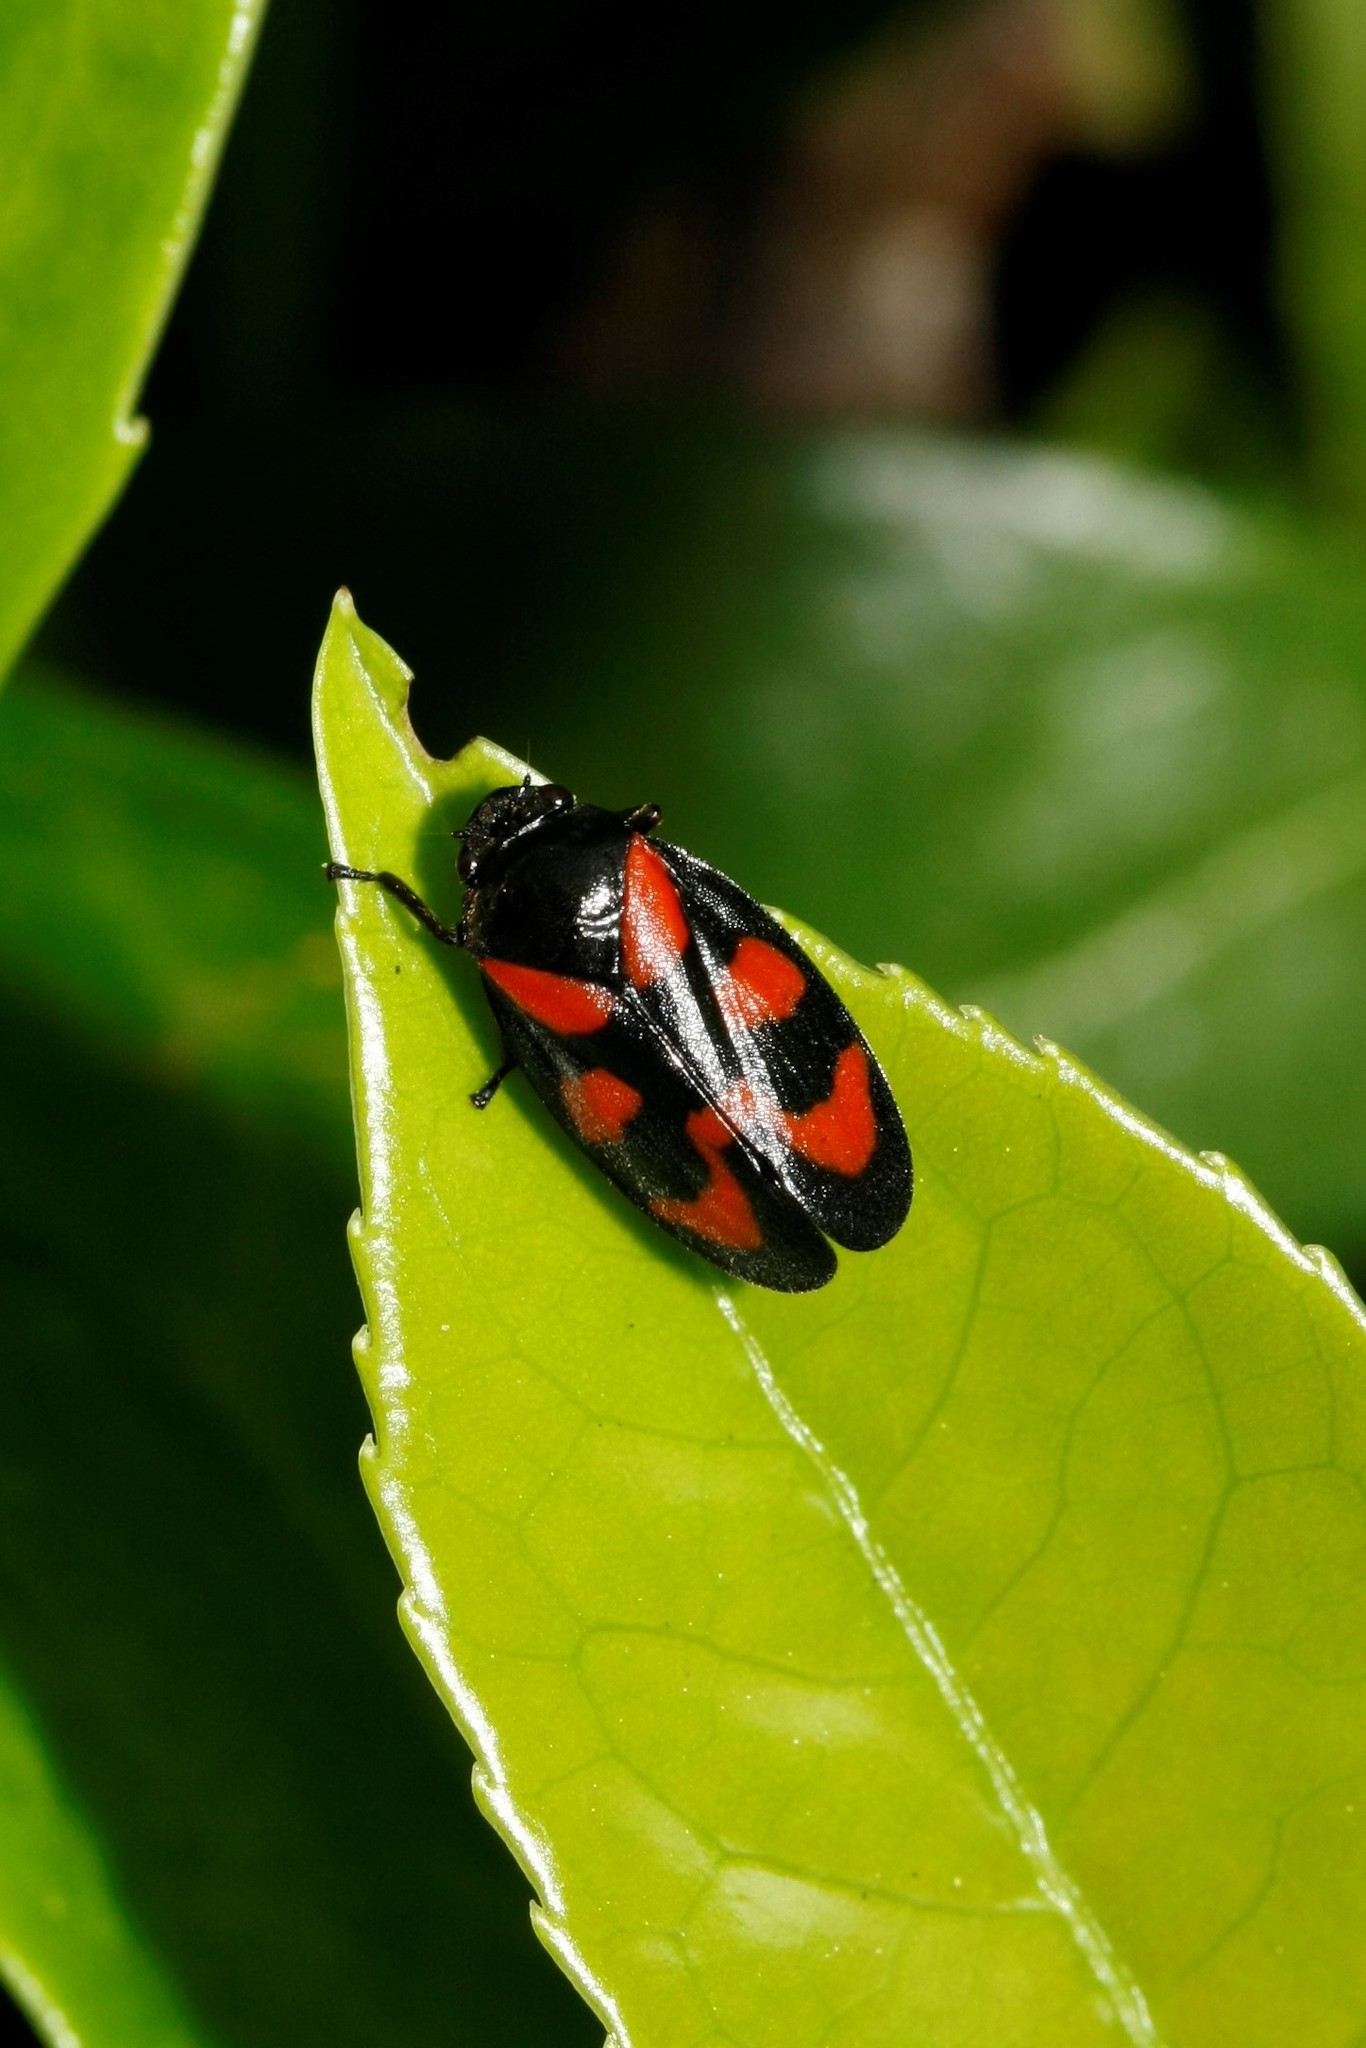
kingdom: Animalia
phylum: Arthropoda
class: Insecta
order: Hemiptera
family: Cercopidae
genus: Cercopis
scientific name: Cercopis vulnerata
